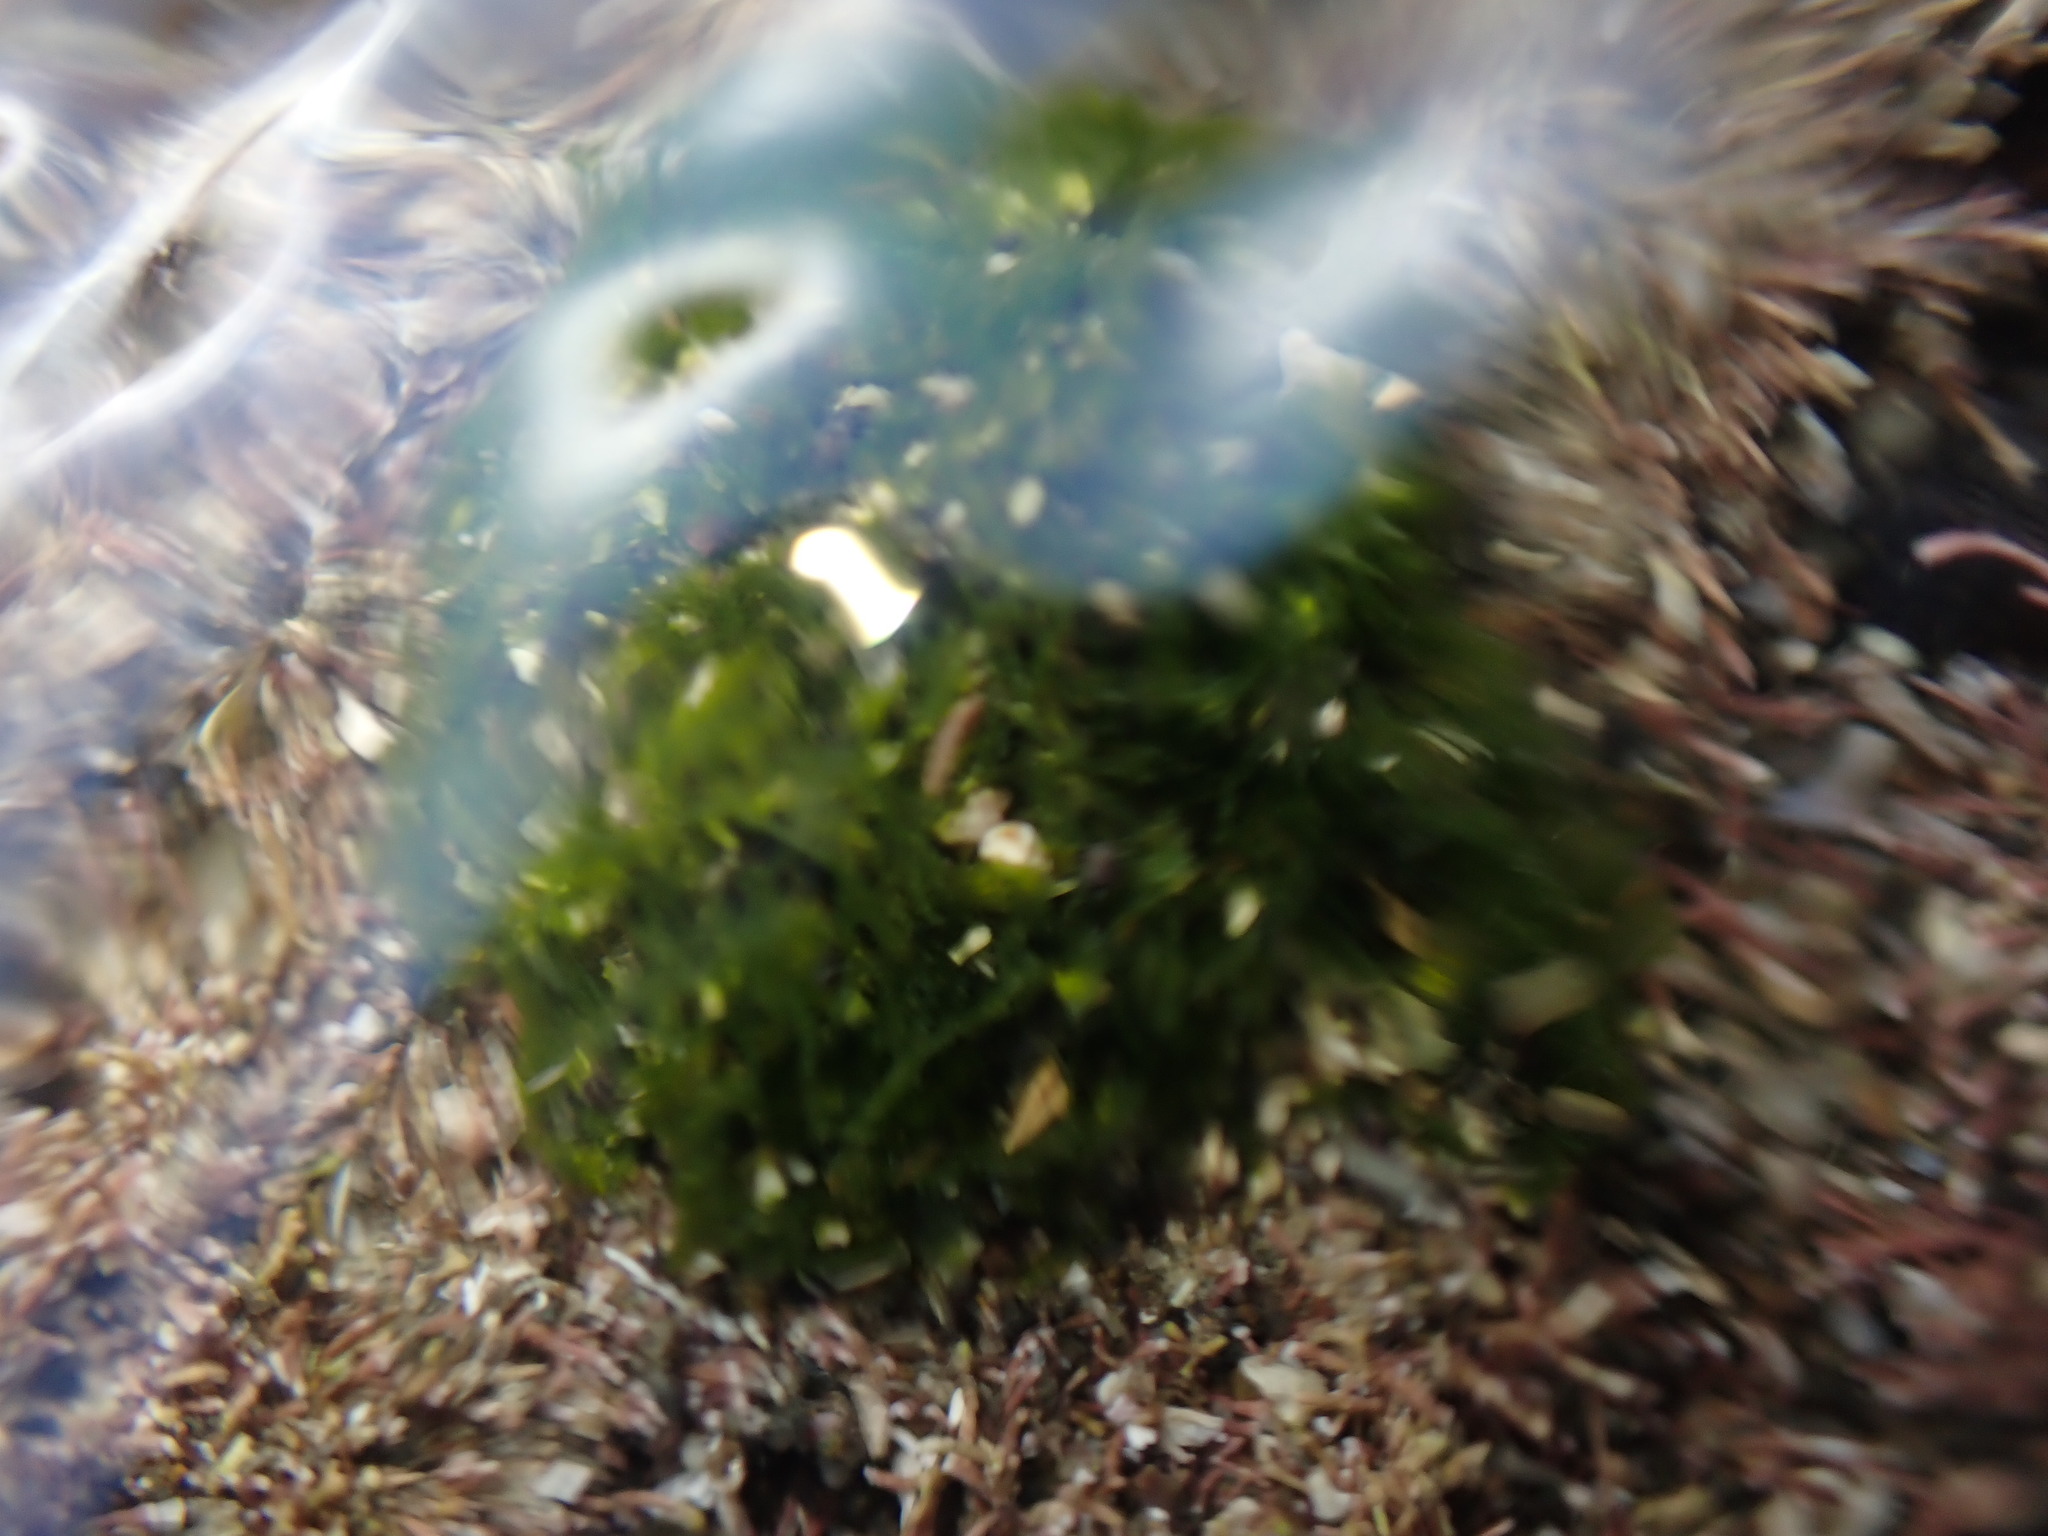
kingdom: Plantae
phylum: Chlorophyta
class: Ulvophyceae
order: Cladophorales
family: Anadyomenaceae
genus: Microdictyon
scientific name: Microdictyon mutabile
